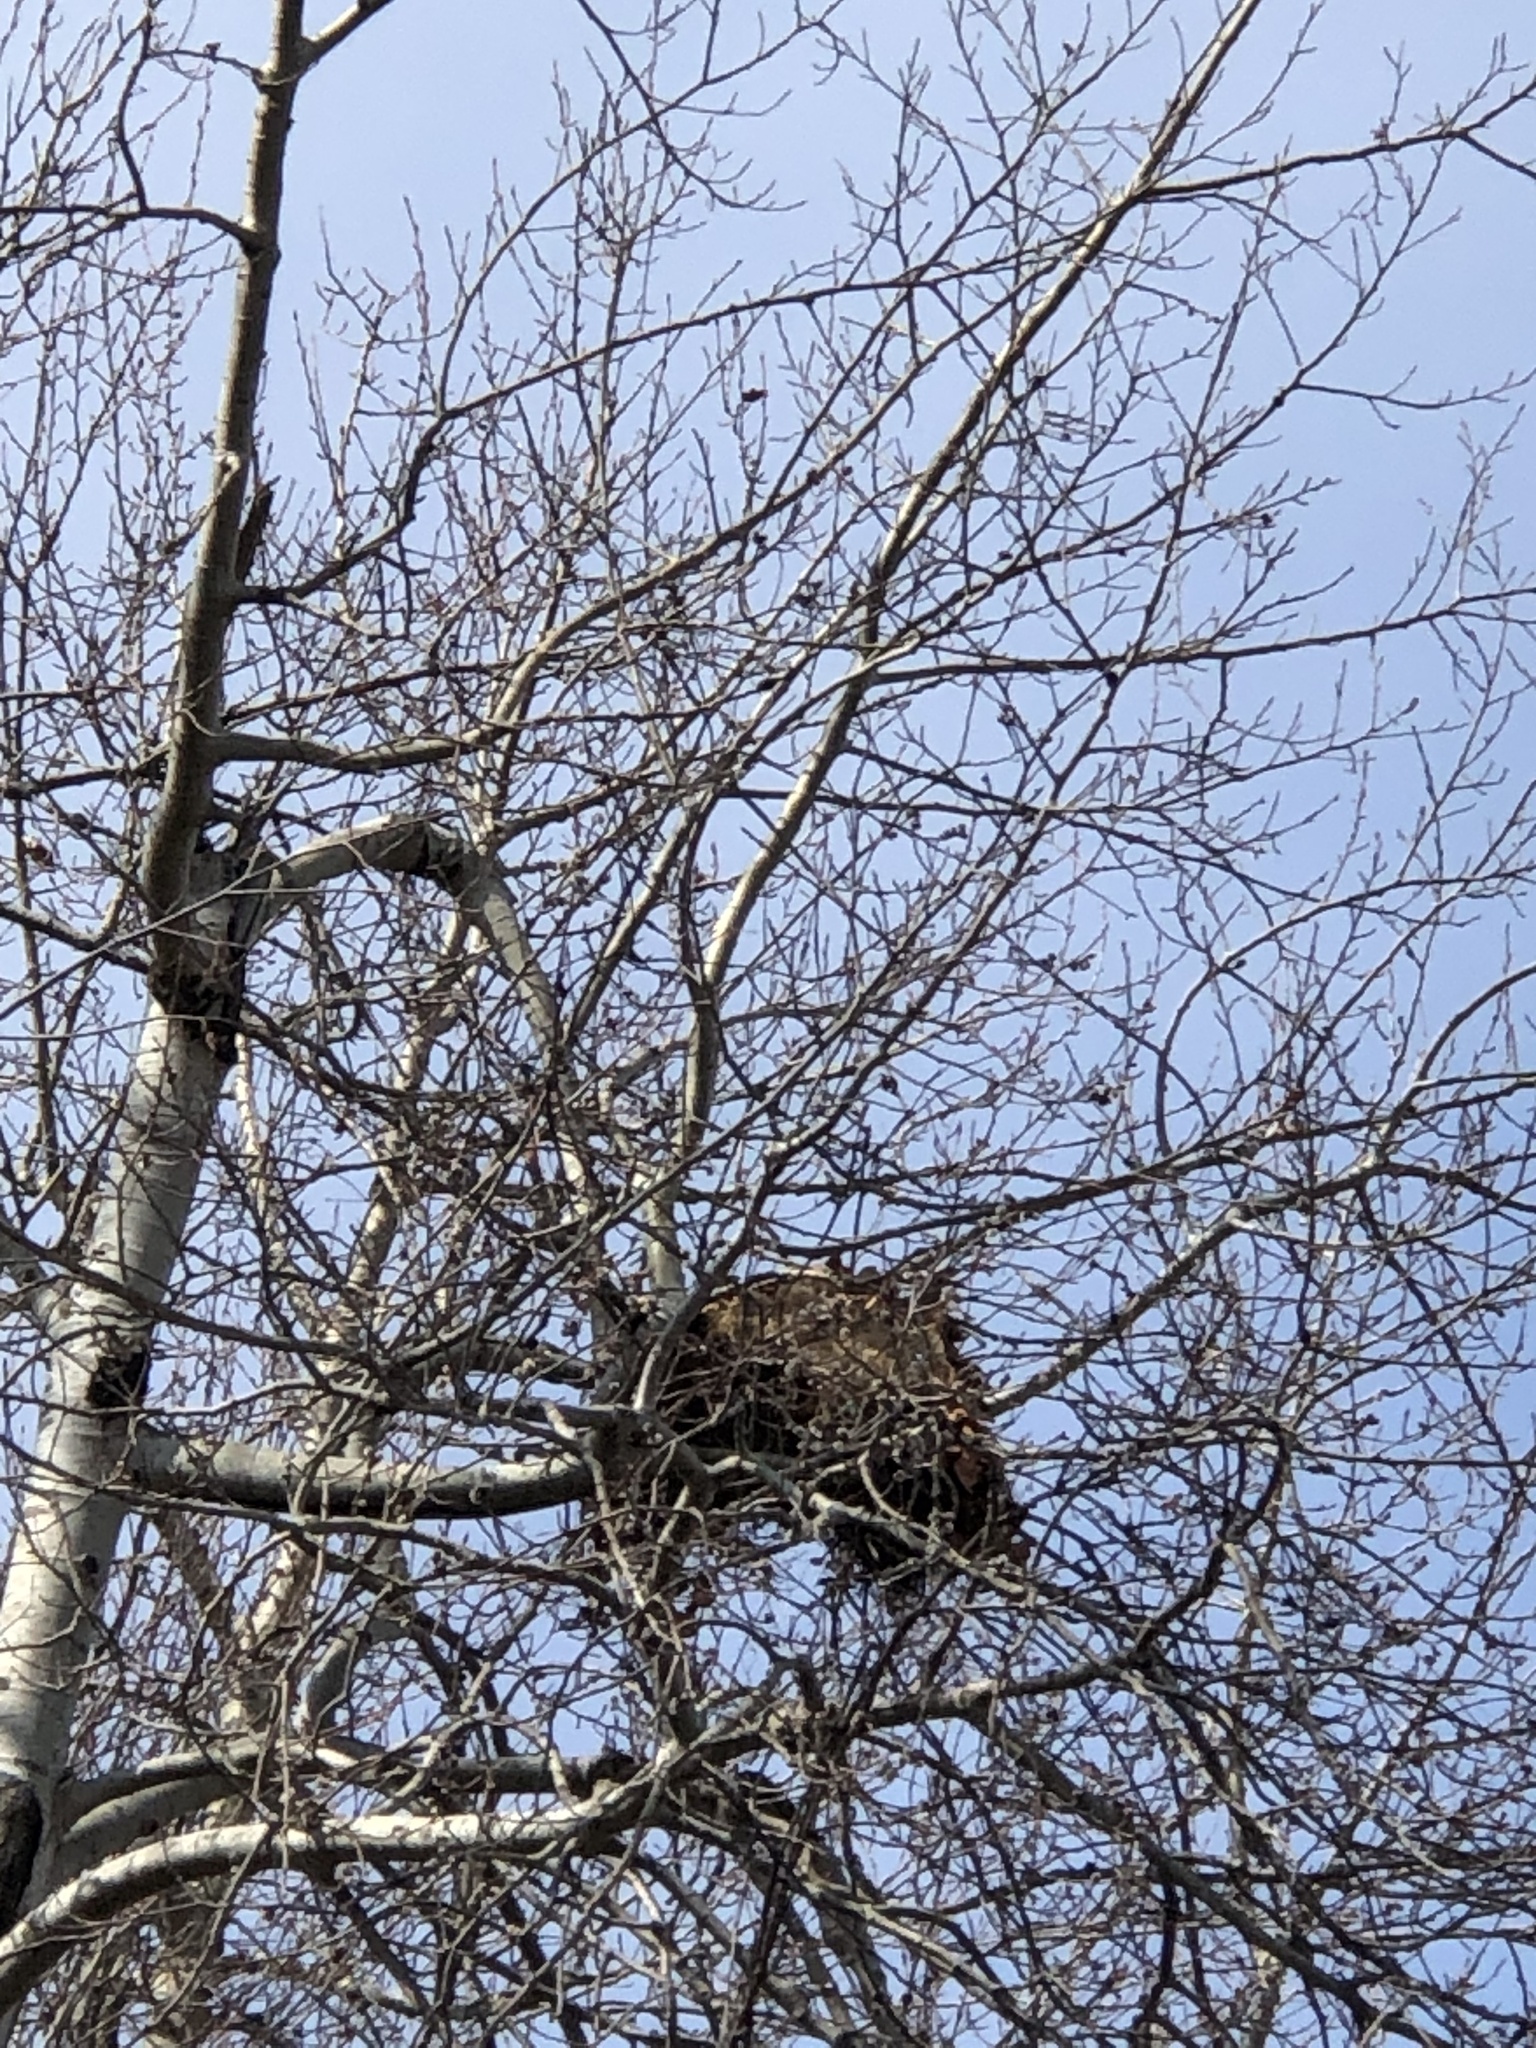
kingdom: Animalia
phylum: Chordata
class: Mammalia
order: Rodentia
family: Sciuridae
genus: Sciurus
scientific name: Sciurus carolinensis
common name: Eastern gray squirrel
